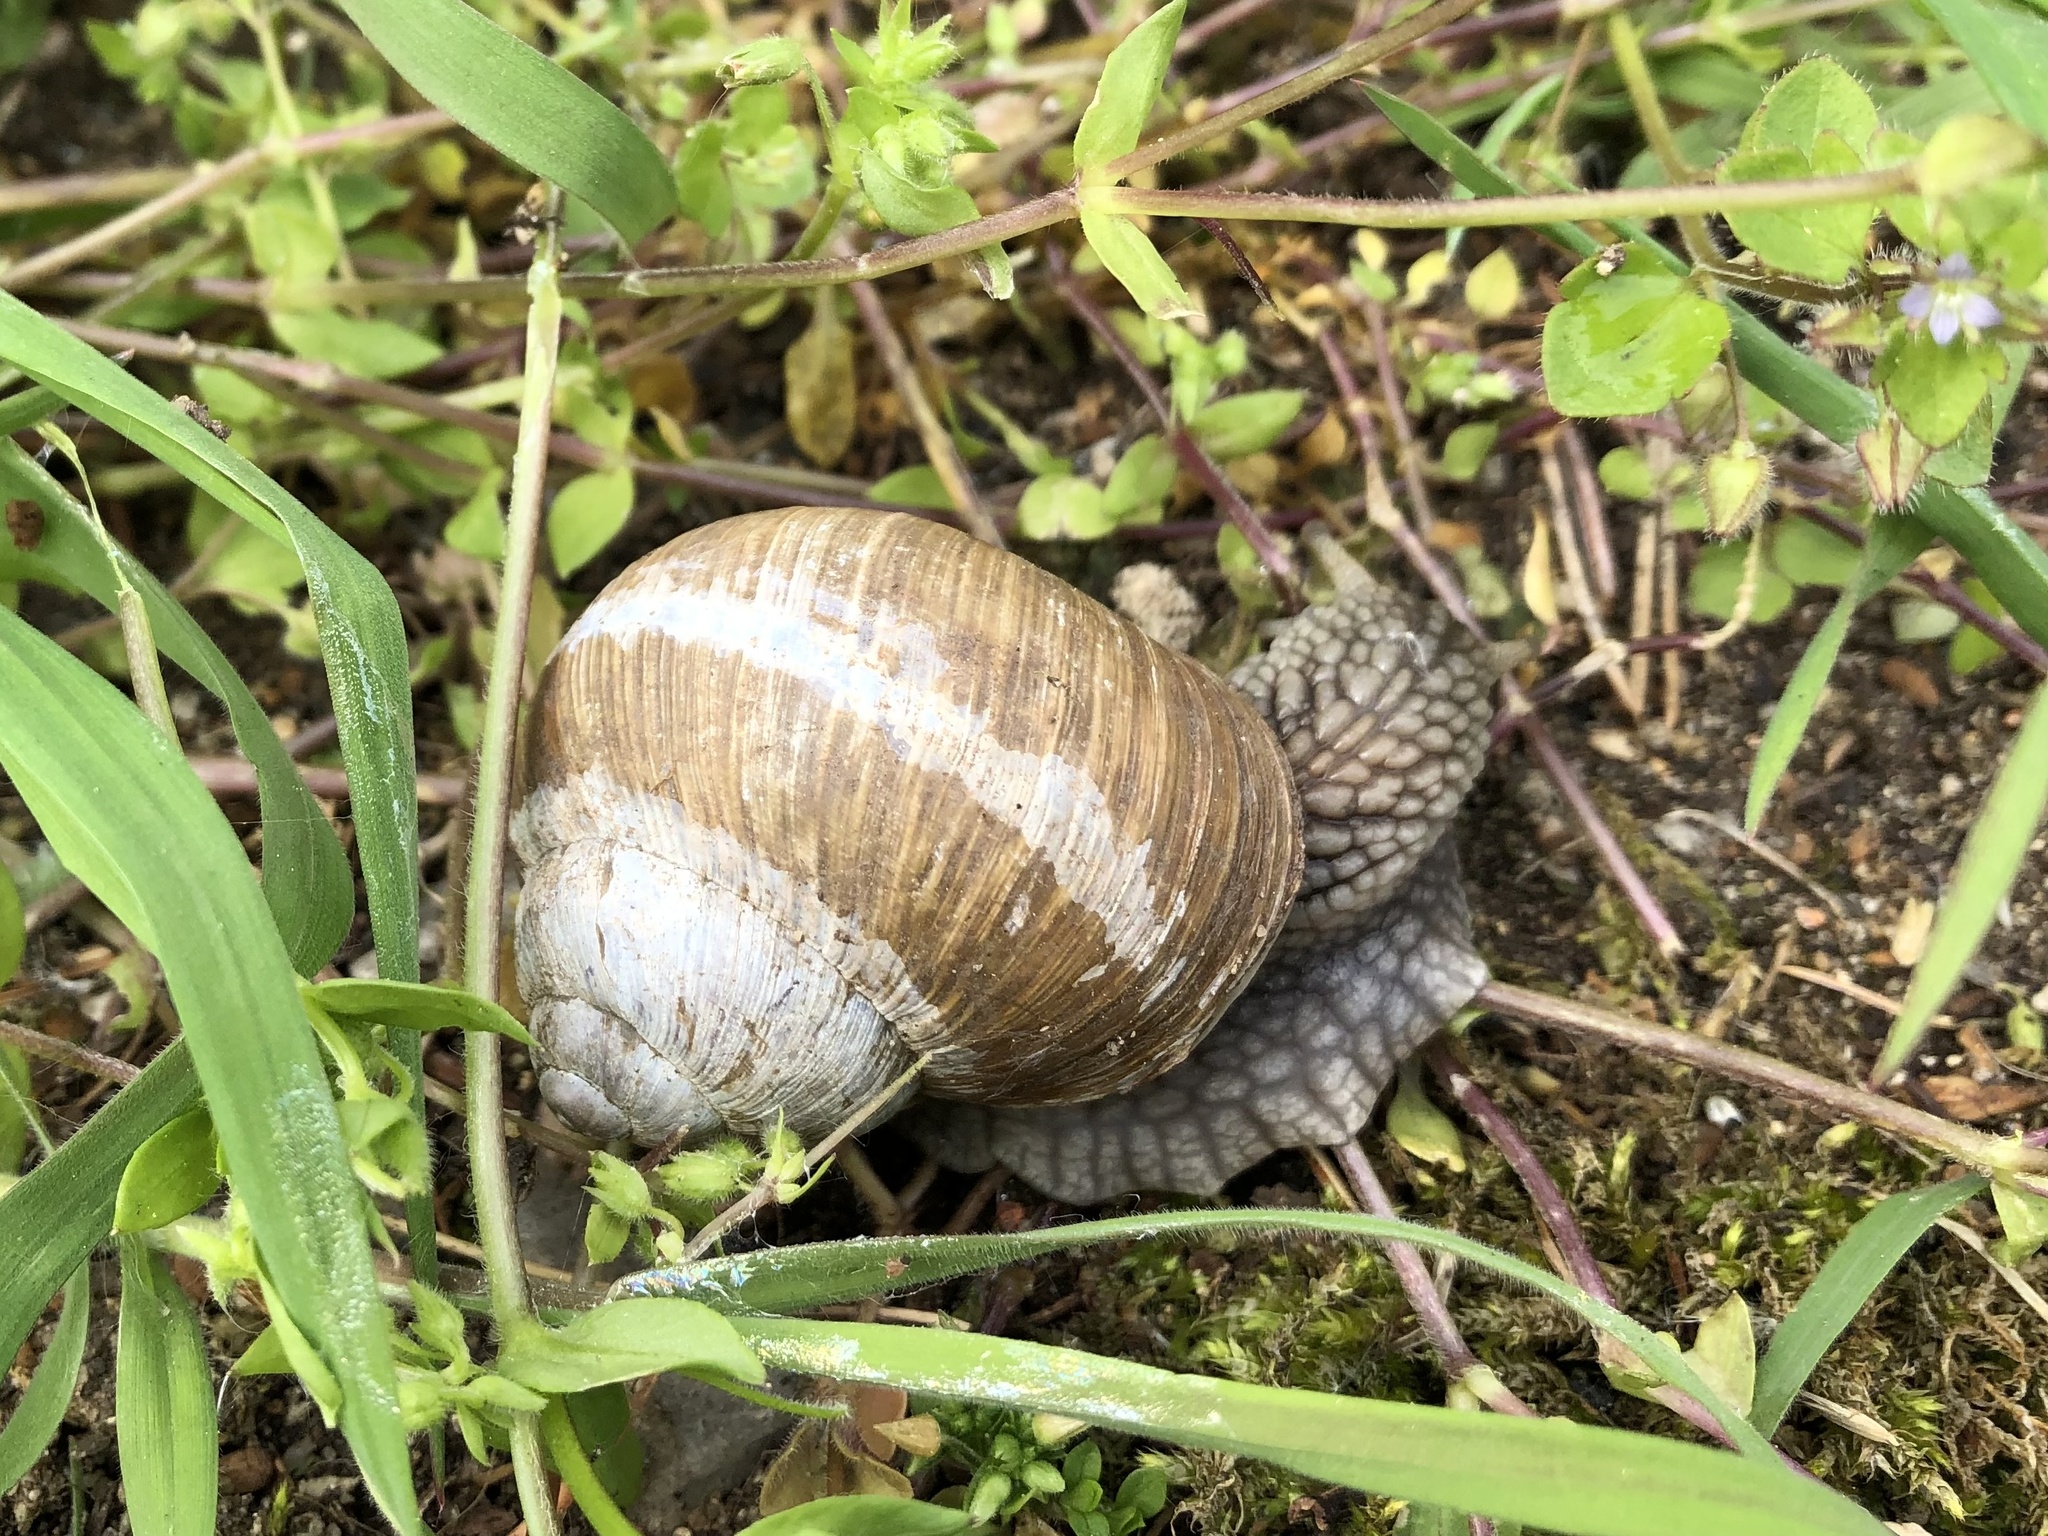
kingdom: Animalia
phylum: Mollusca
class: Gastropoda
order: Stylommatophora
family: Helicidae
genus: Helix
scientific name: Helix pomatia
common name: Roman snail
